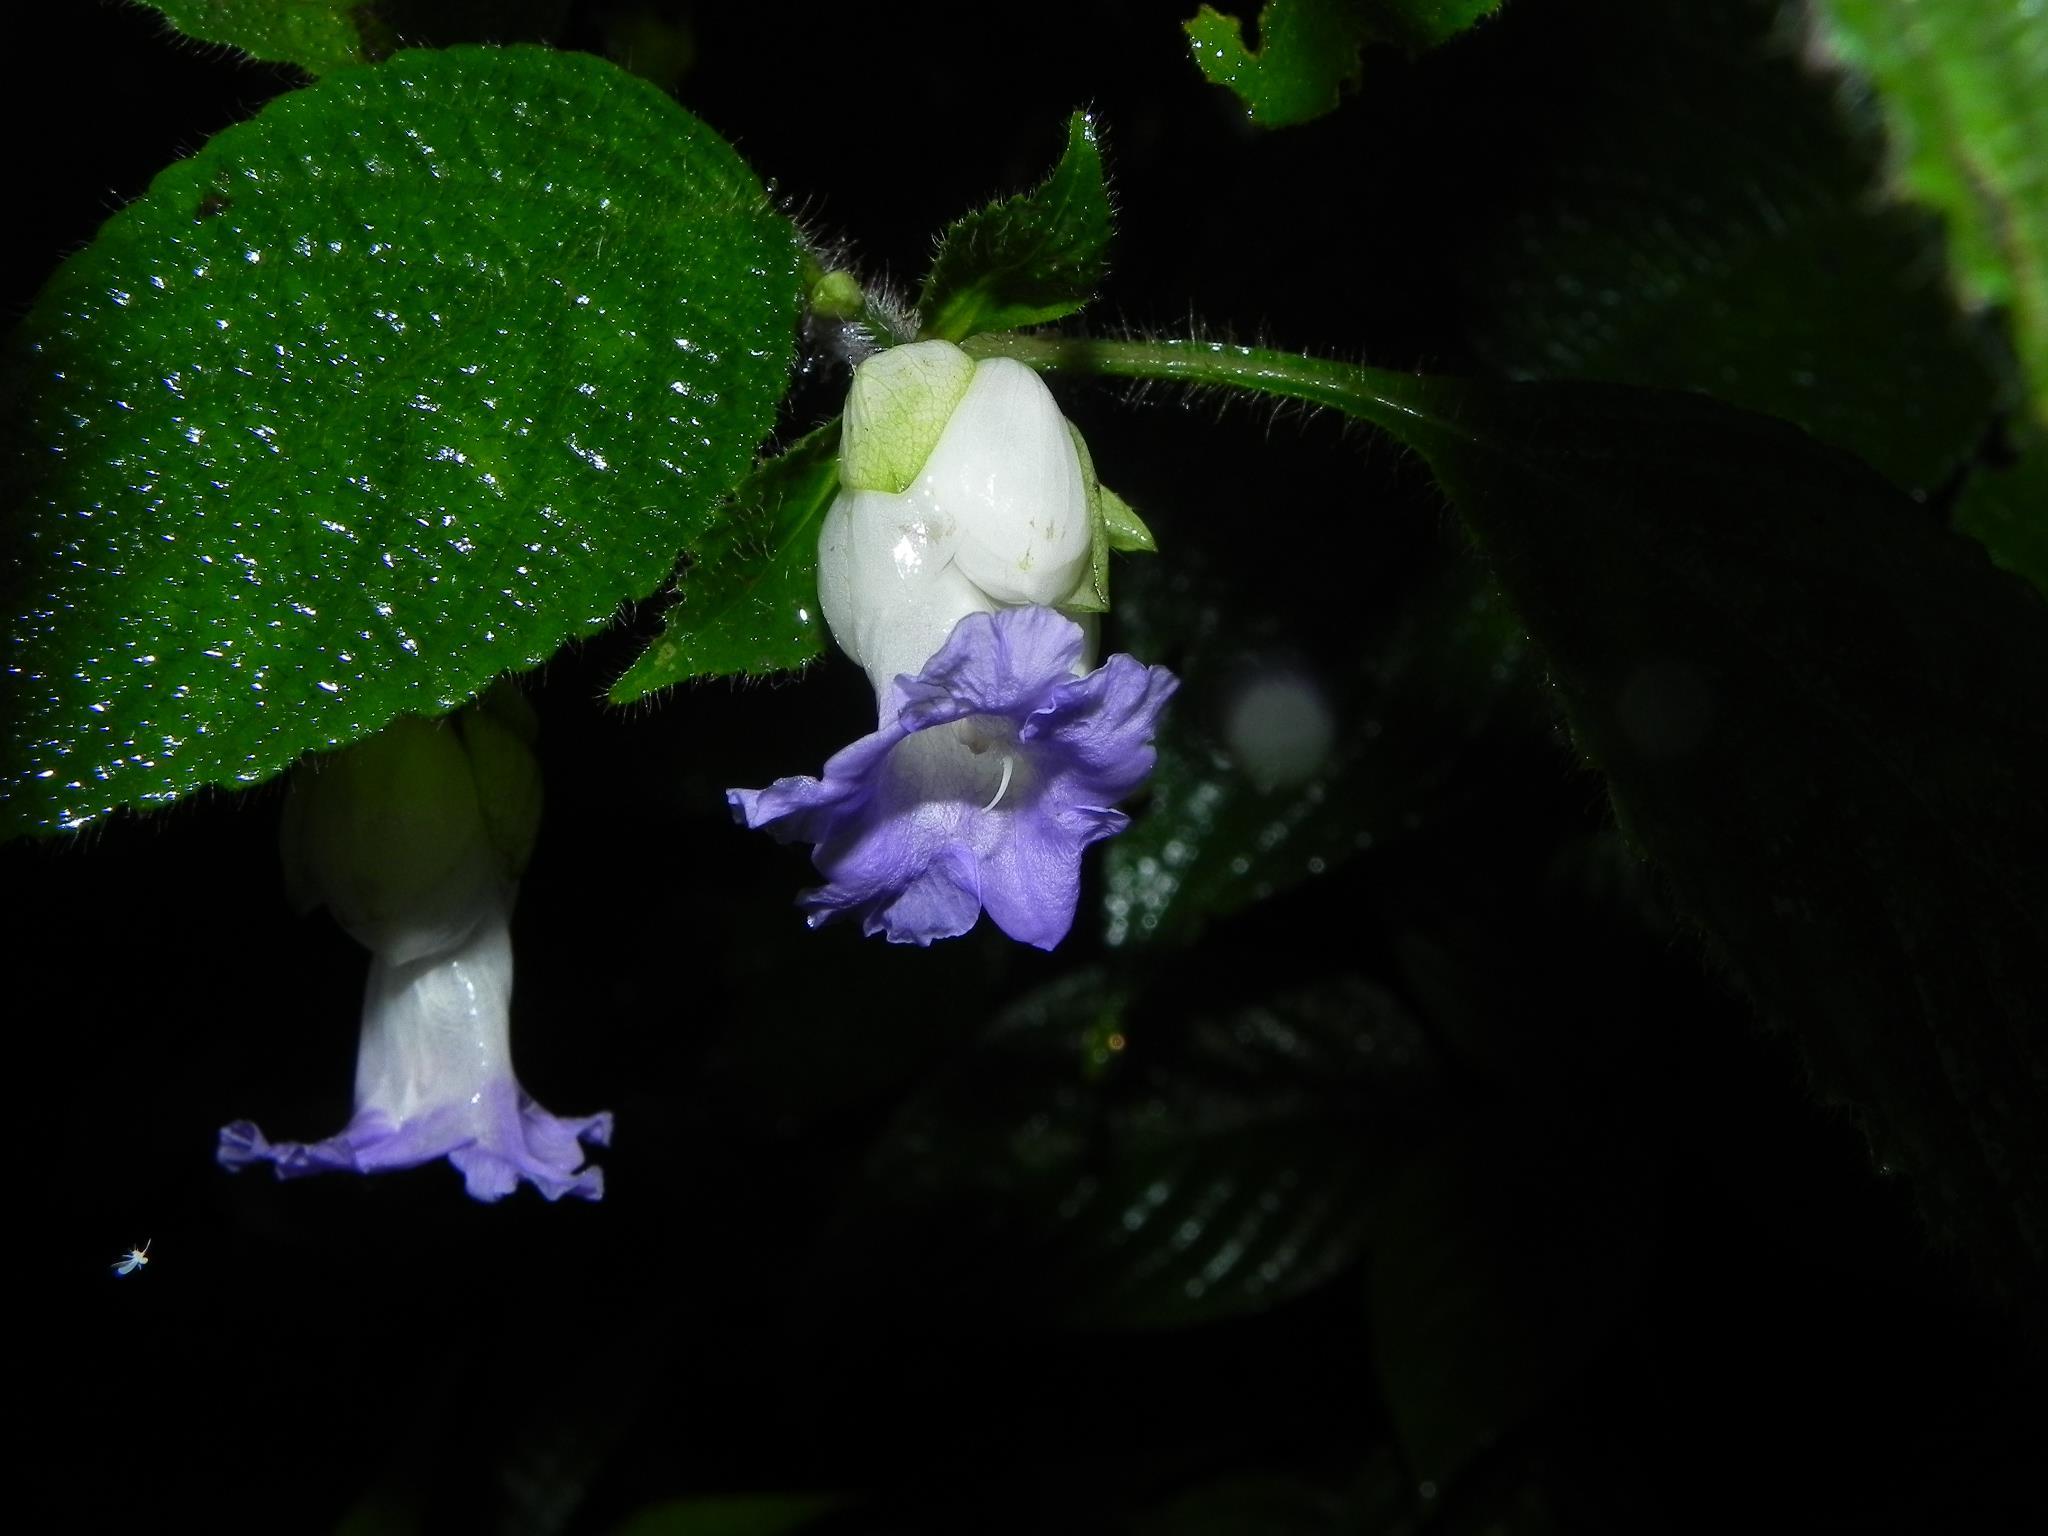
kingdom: Plantae
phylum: Tracheophyta
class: Magnoliopsida
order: Lamiales
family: Acanthaceae
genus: Strobilanthes
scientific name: Strobilanthes heyneana
